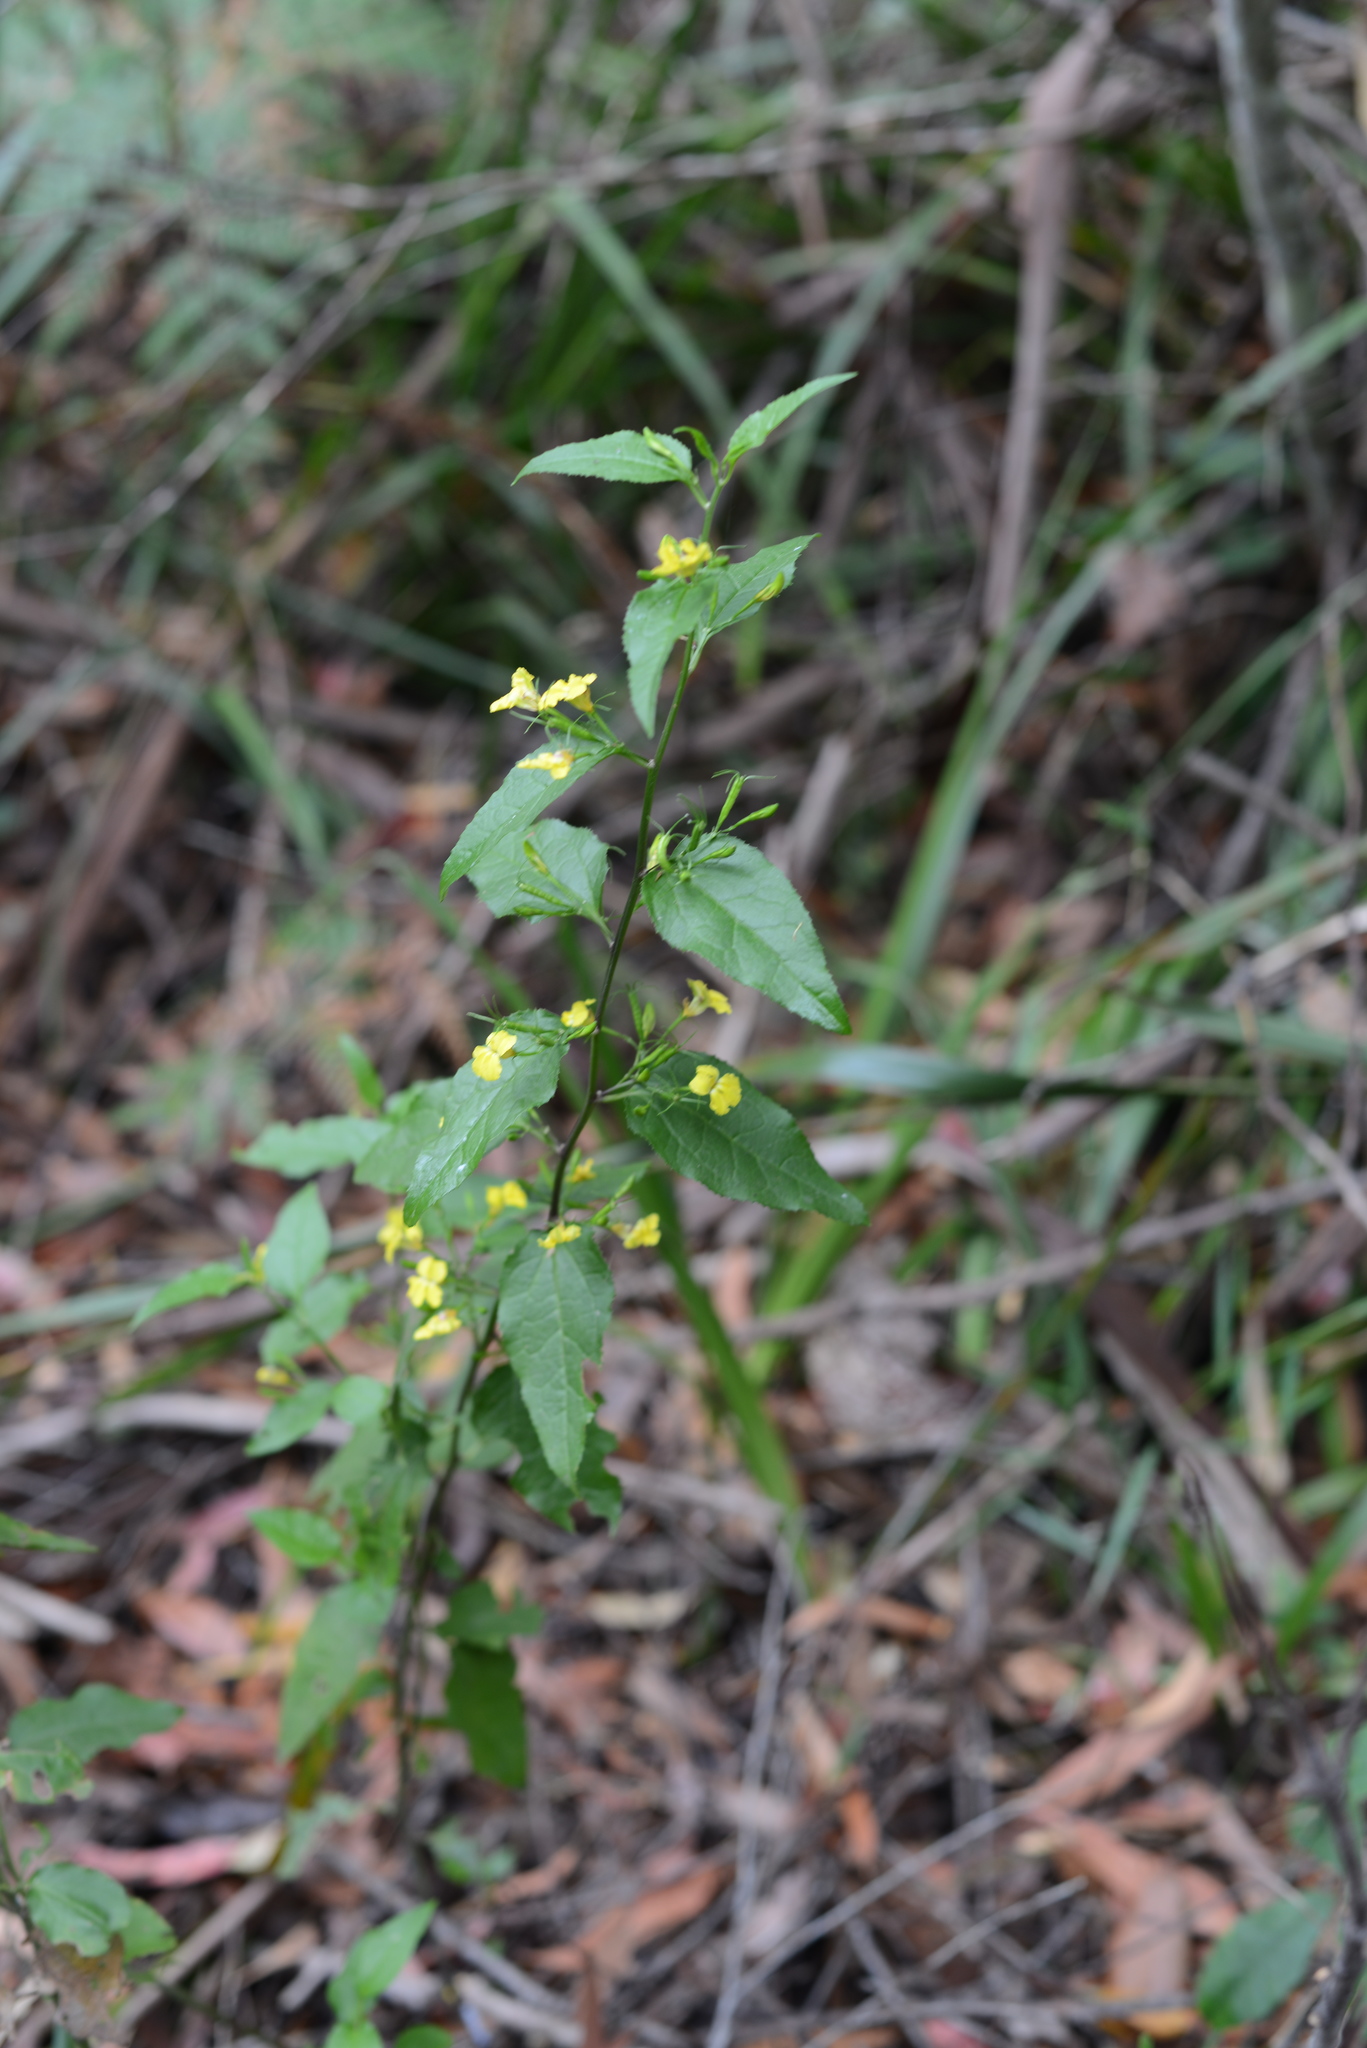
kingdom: Plantae
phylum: Tracheophyta
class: Magnoliopsida
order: Asterales
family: Goodeniaceae
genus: Goodenia
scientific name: Goodenia ovata
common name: Hop goodenia
